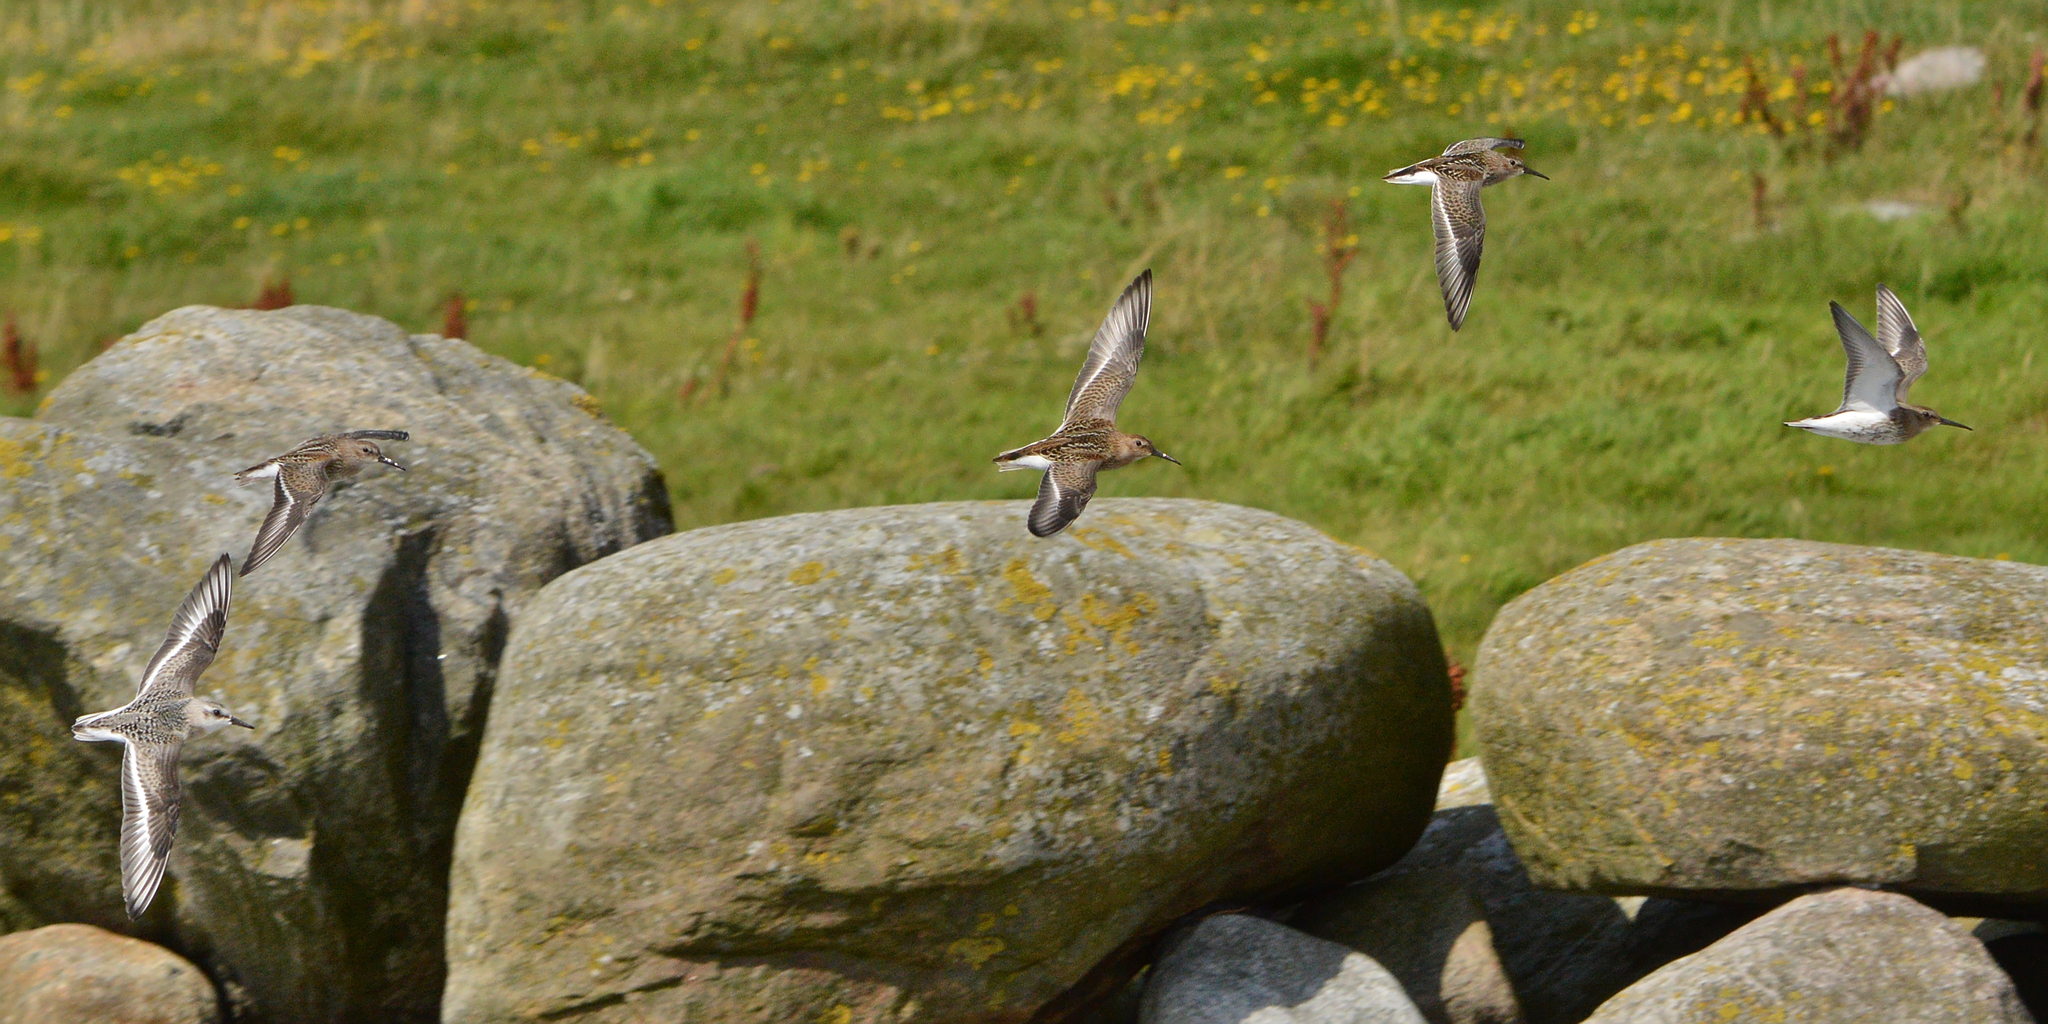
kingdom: Animalia
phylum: Chordata
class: Aves
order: Charadriiformes
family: Scolopacidae
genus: Calidris
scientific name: Calidris alba
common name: Sanderling
